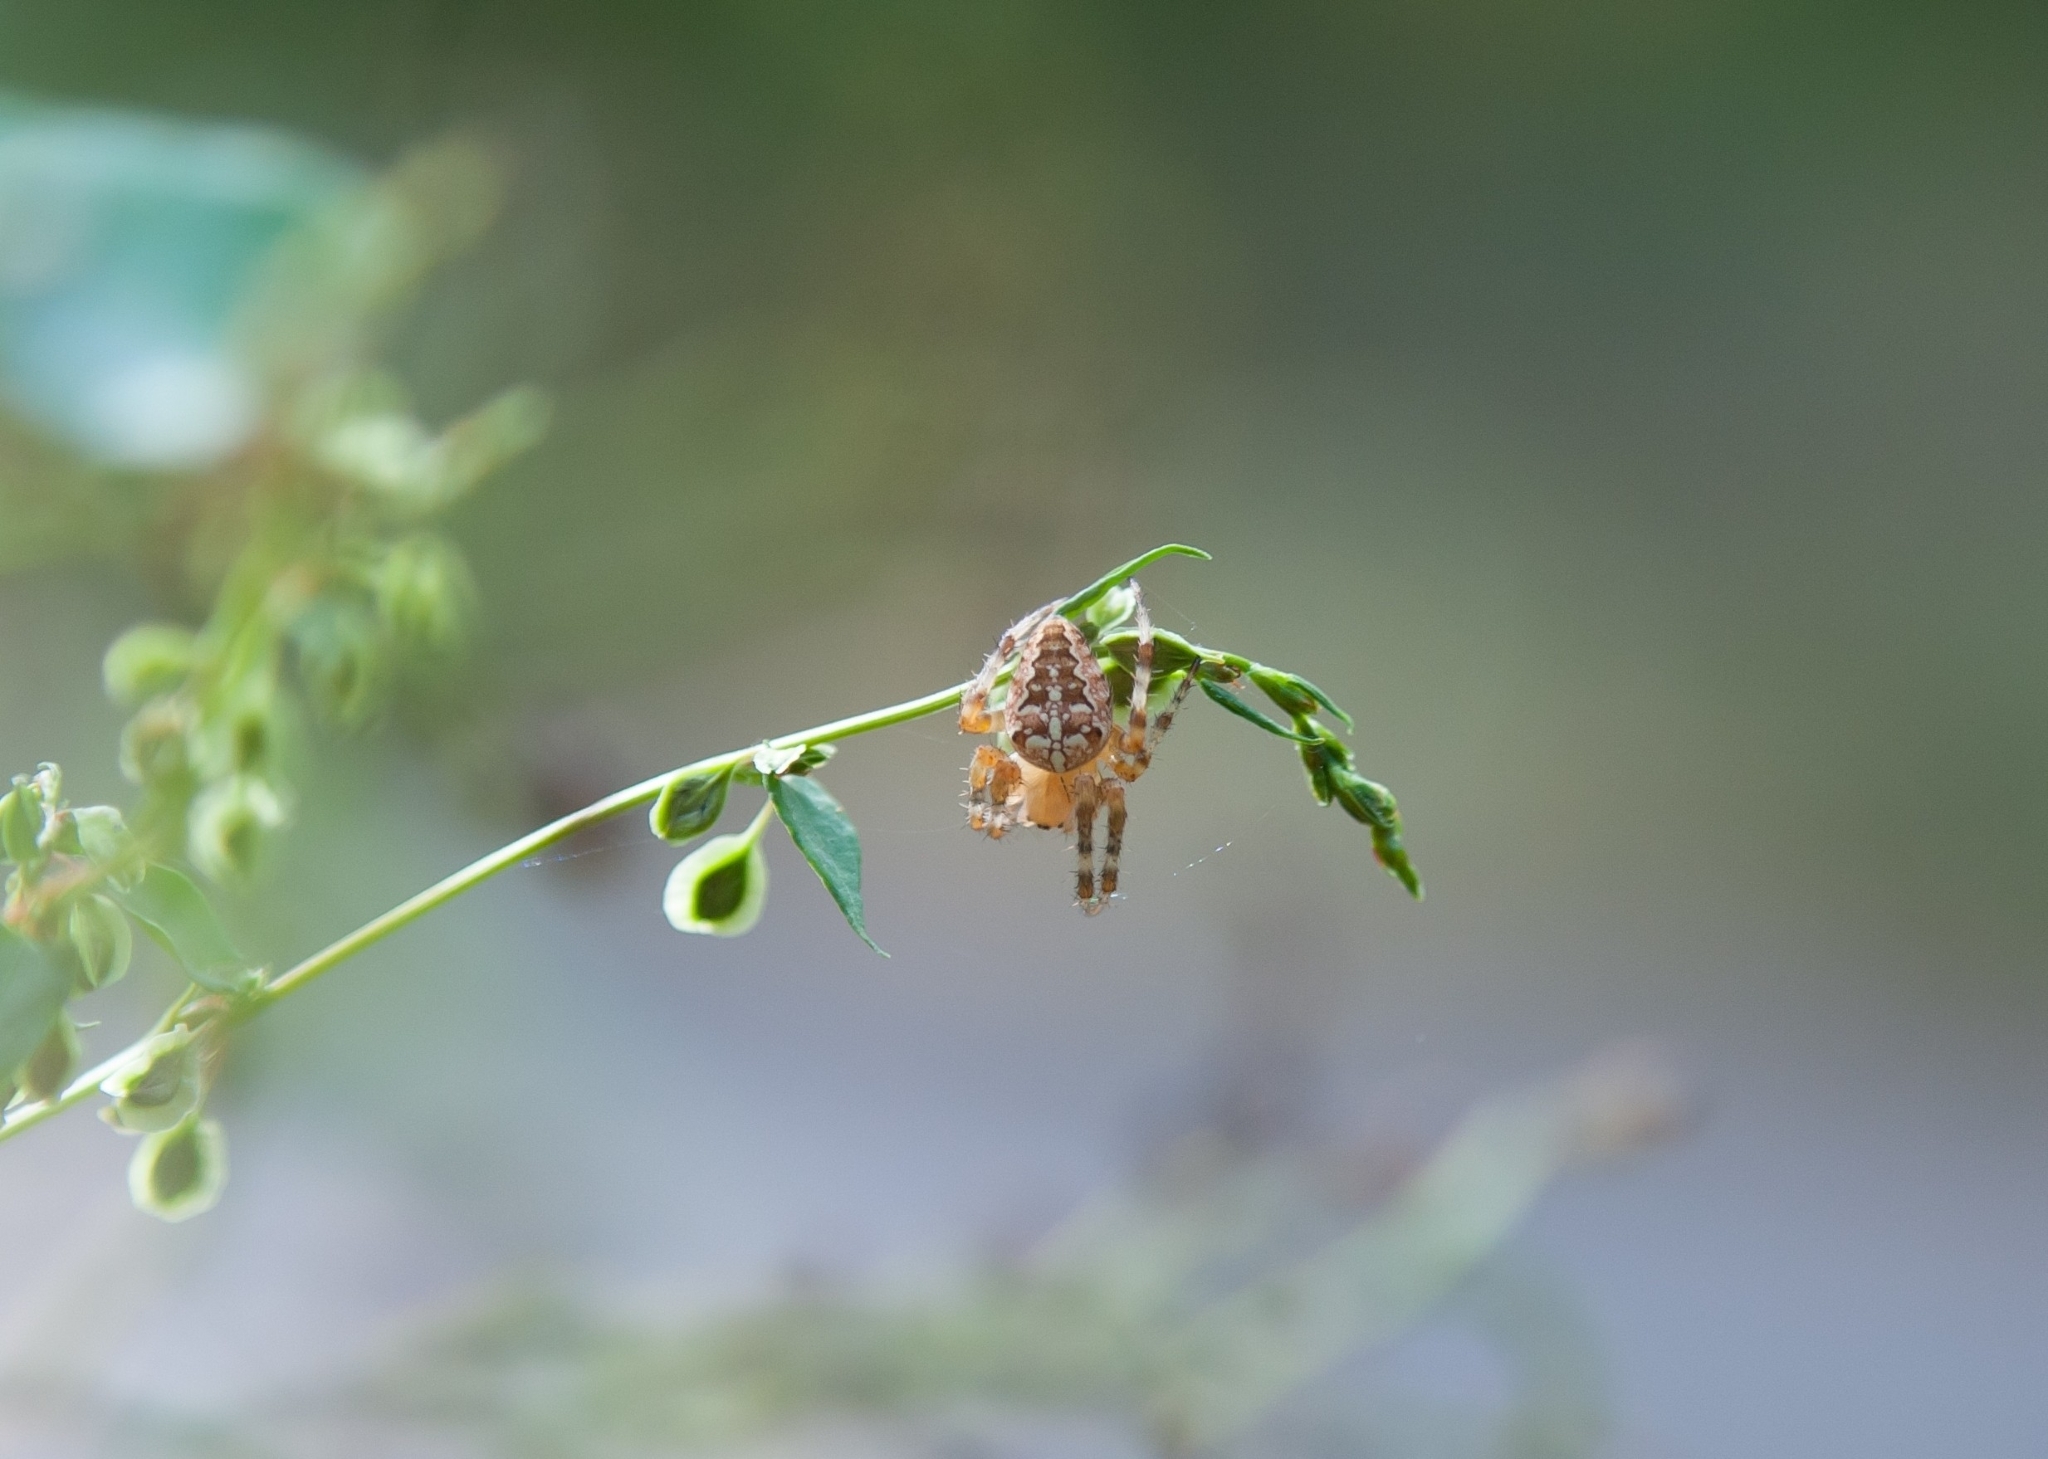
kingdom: Animalia
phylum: Arthropoda
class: Arachnida
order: Araneae
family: Araneidae
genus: Araneus
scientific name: Araneus diadematus
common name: Cross orbweaver
